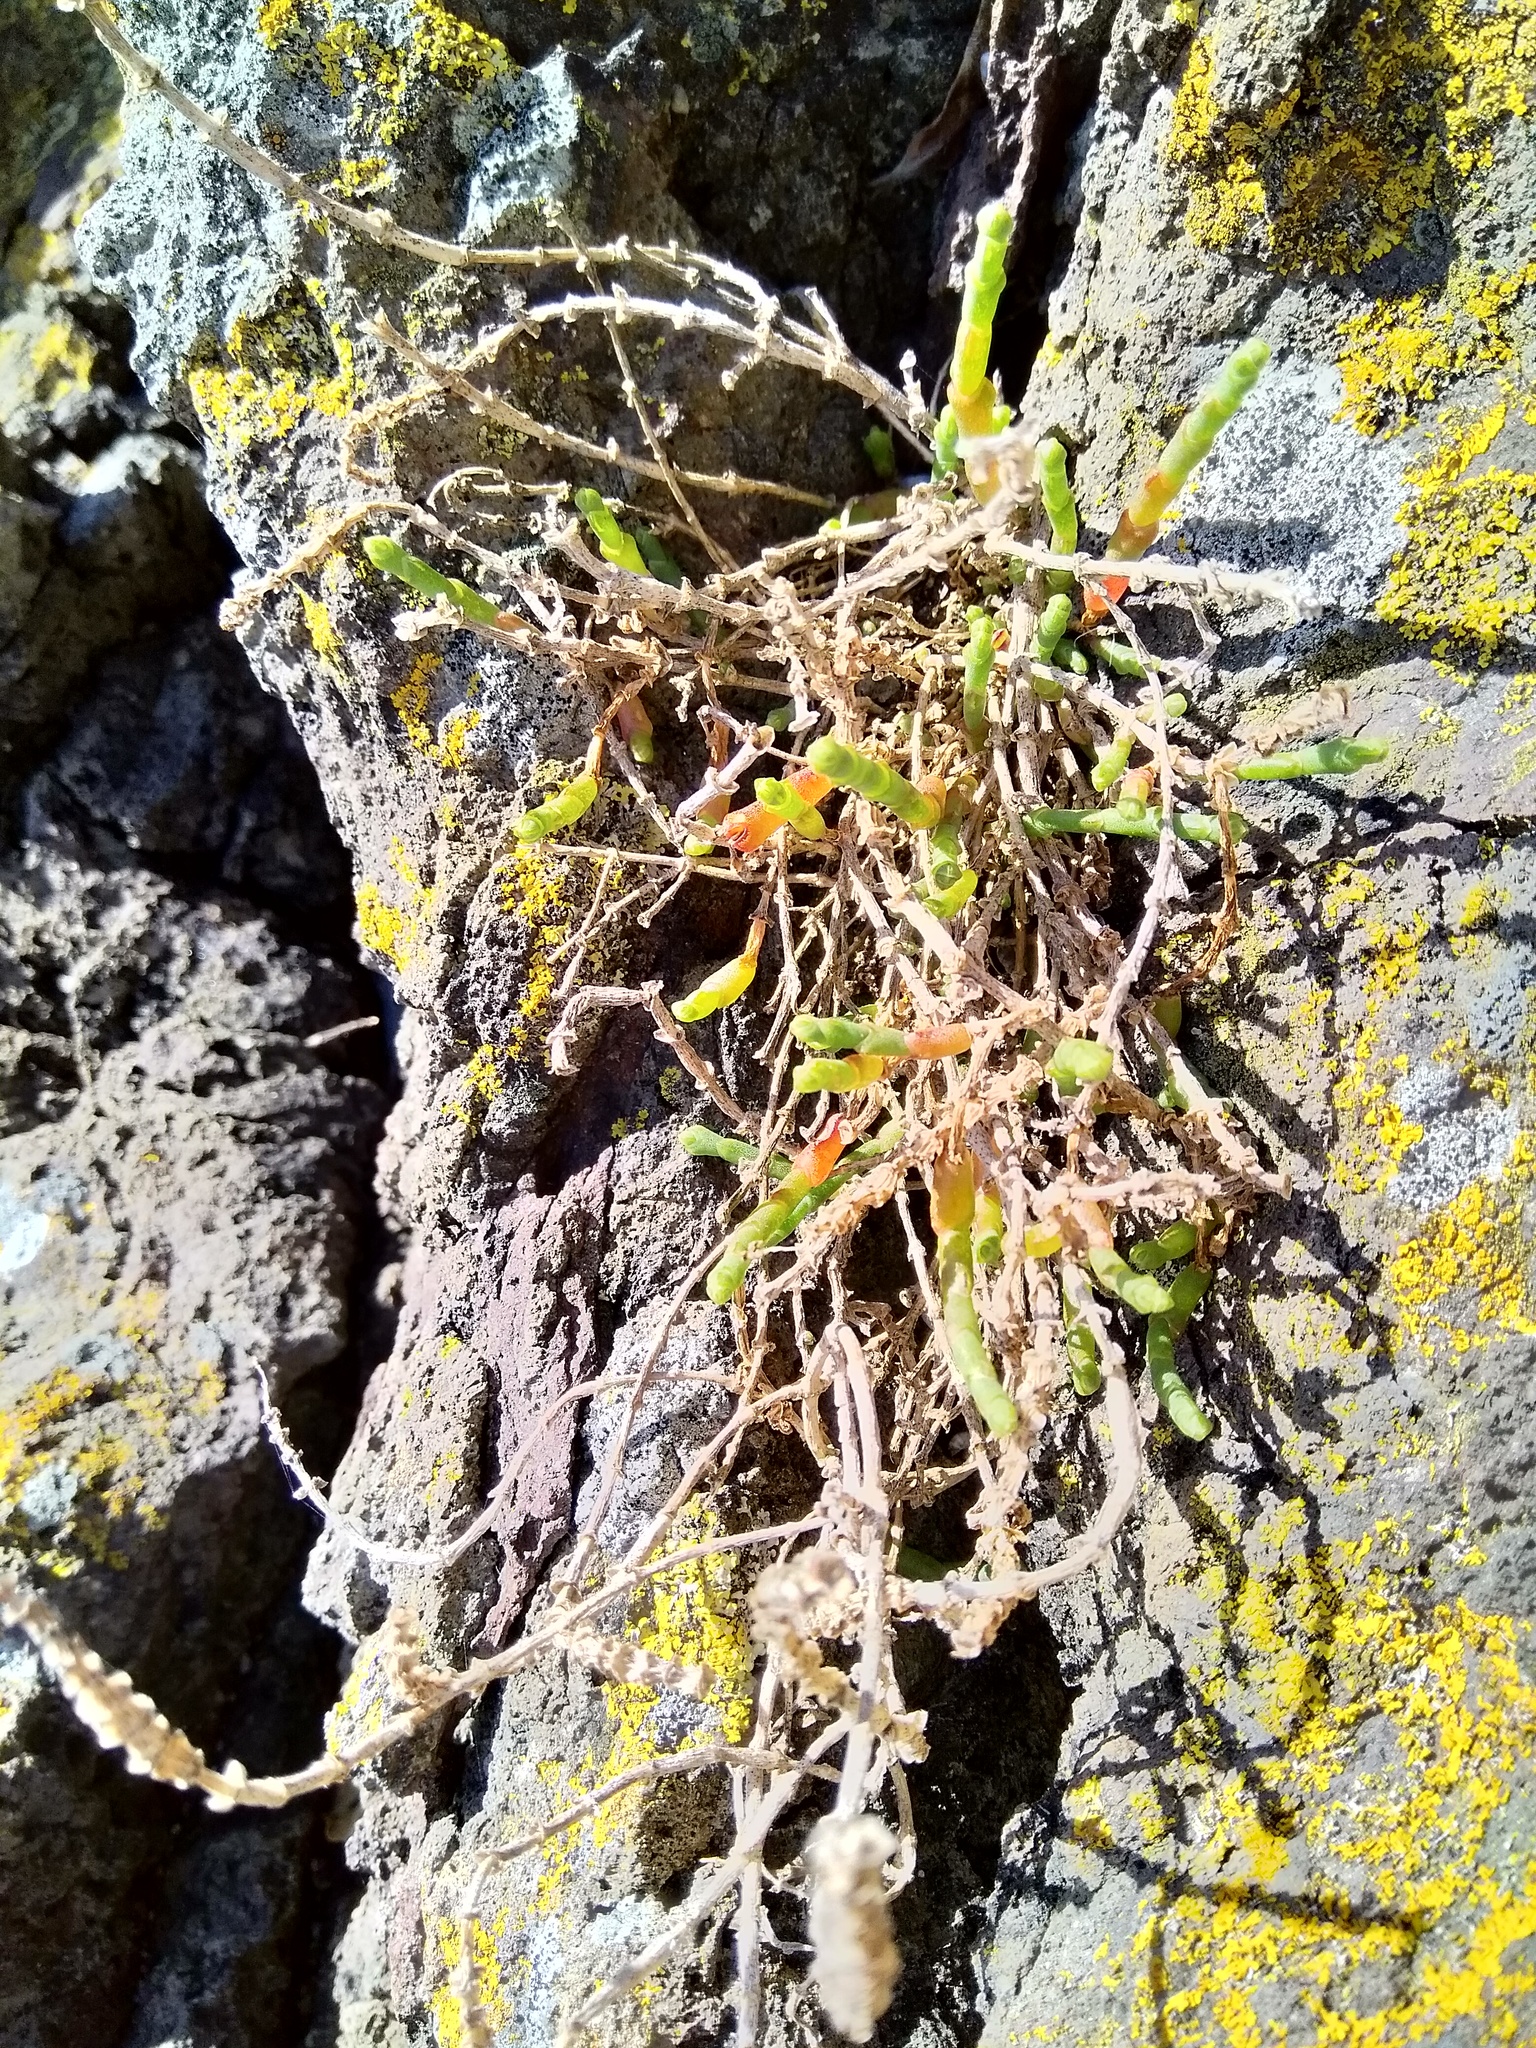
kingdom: Plantae
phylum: Tracheophyta
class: Magnoliopsida
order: Caryophyllales
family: Amaranthaceae
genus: Salicornia
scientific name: Salicornia quinqueflora
